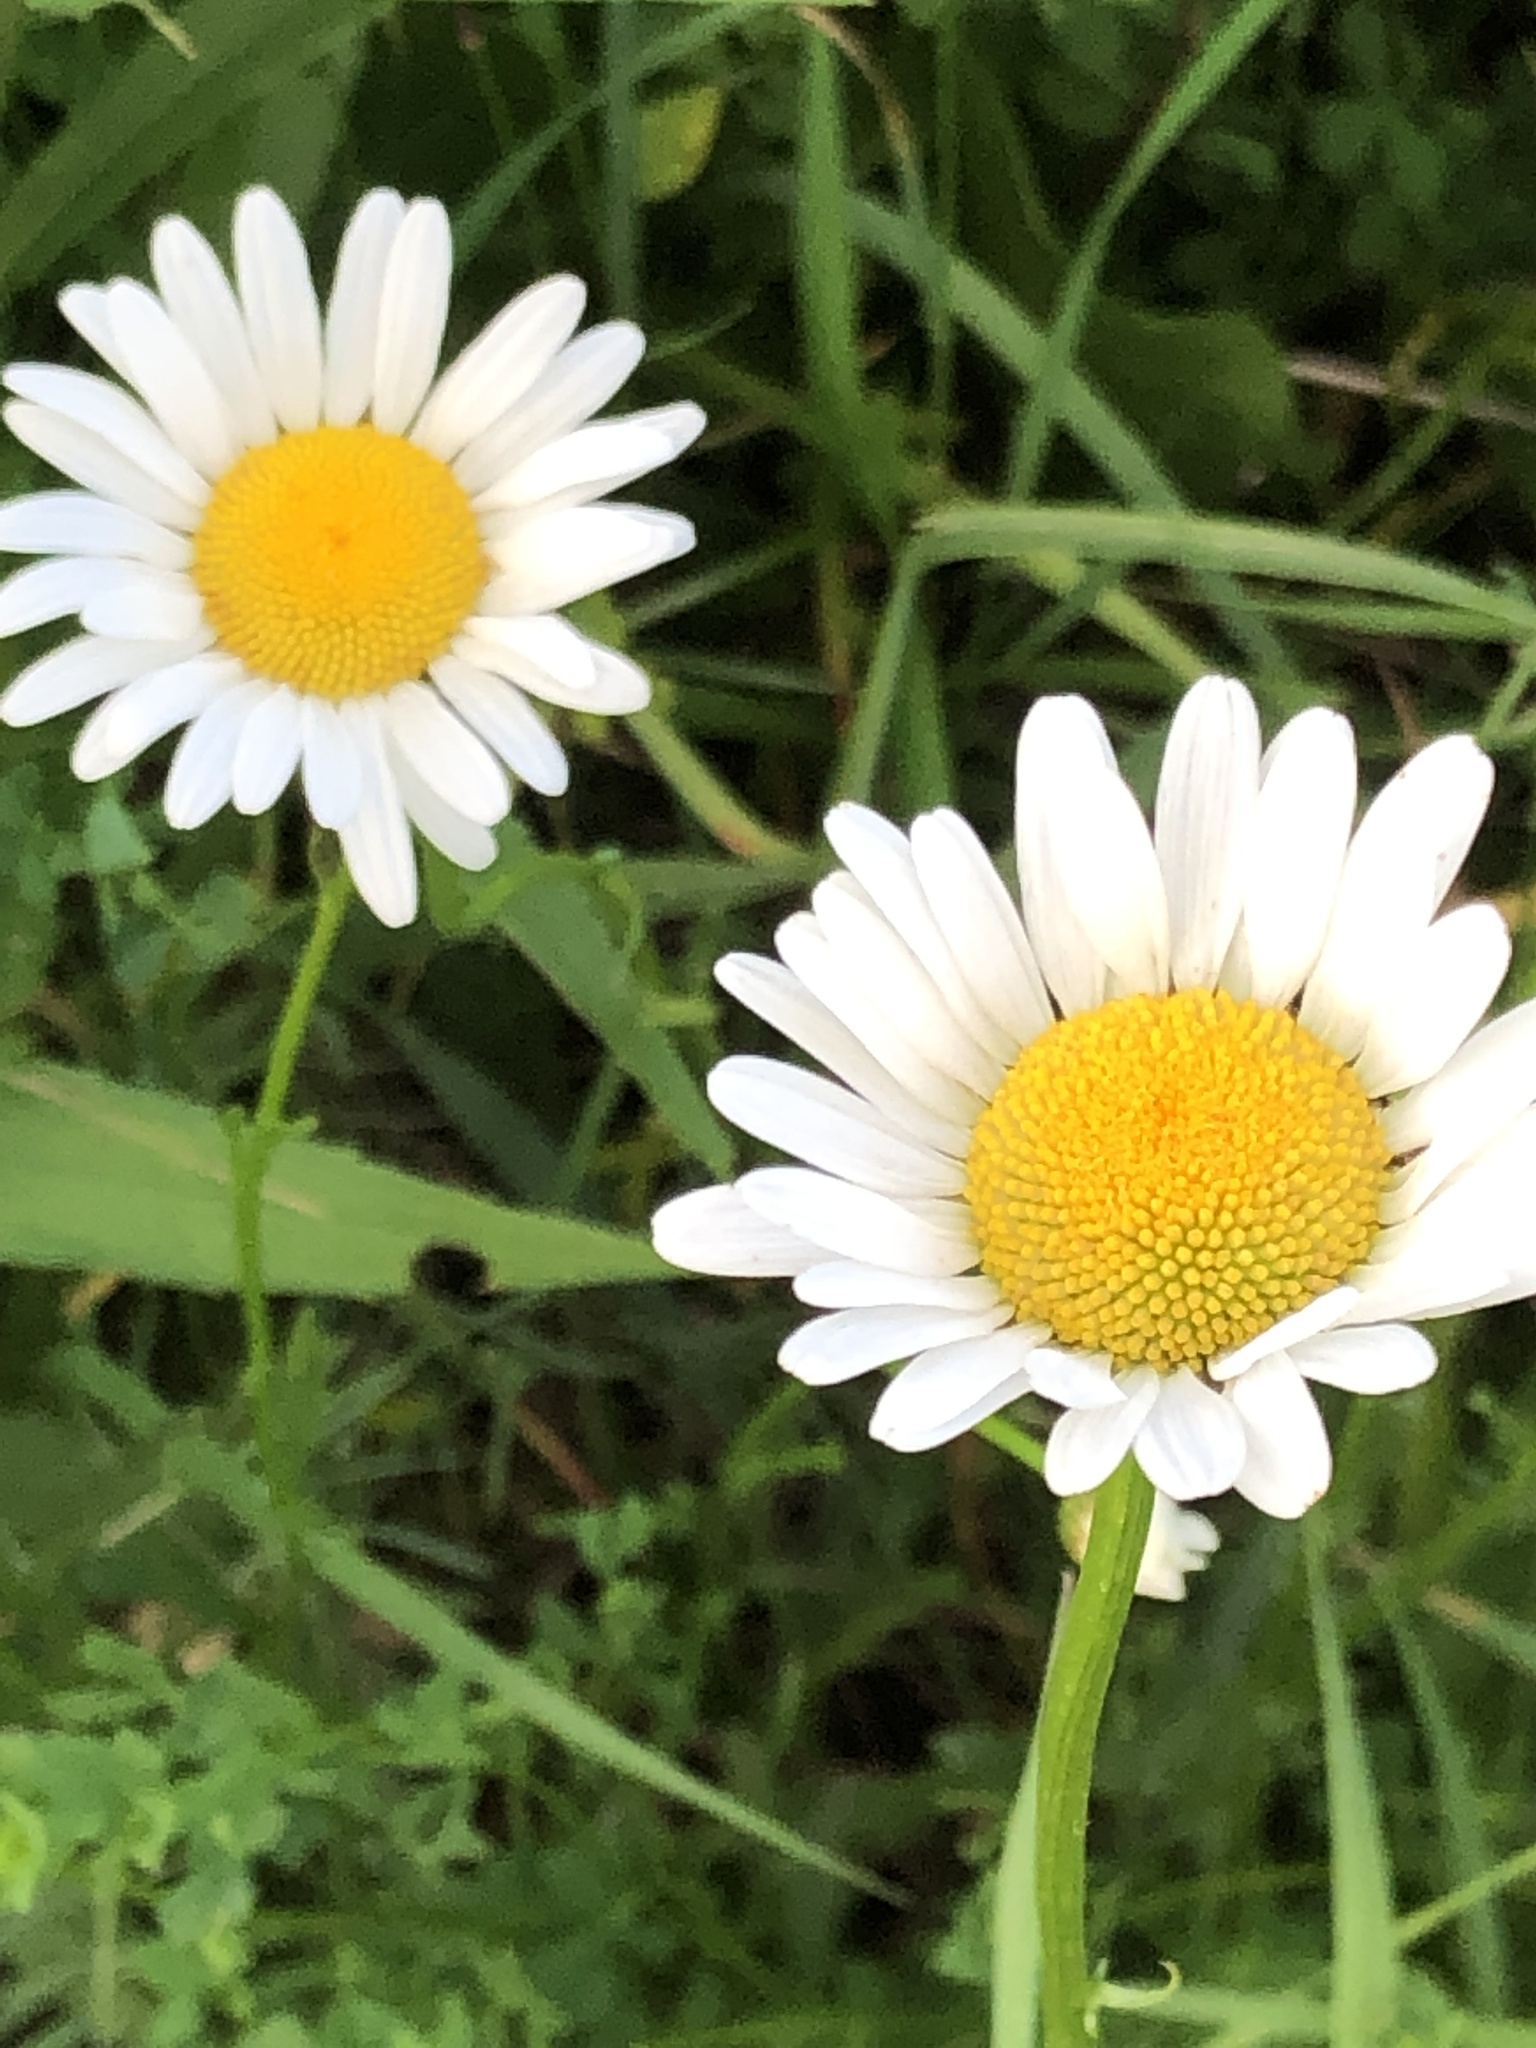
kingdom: Plantae
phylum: Tracheophyta
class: Magnoliopsida
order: Asterales
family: Asteraceae
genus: Leucanthemum
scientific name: Leucanthemum vulgare
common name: Oxeye daisy
